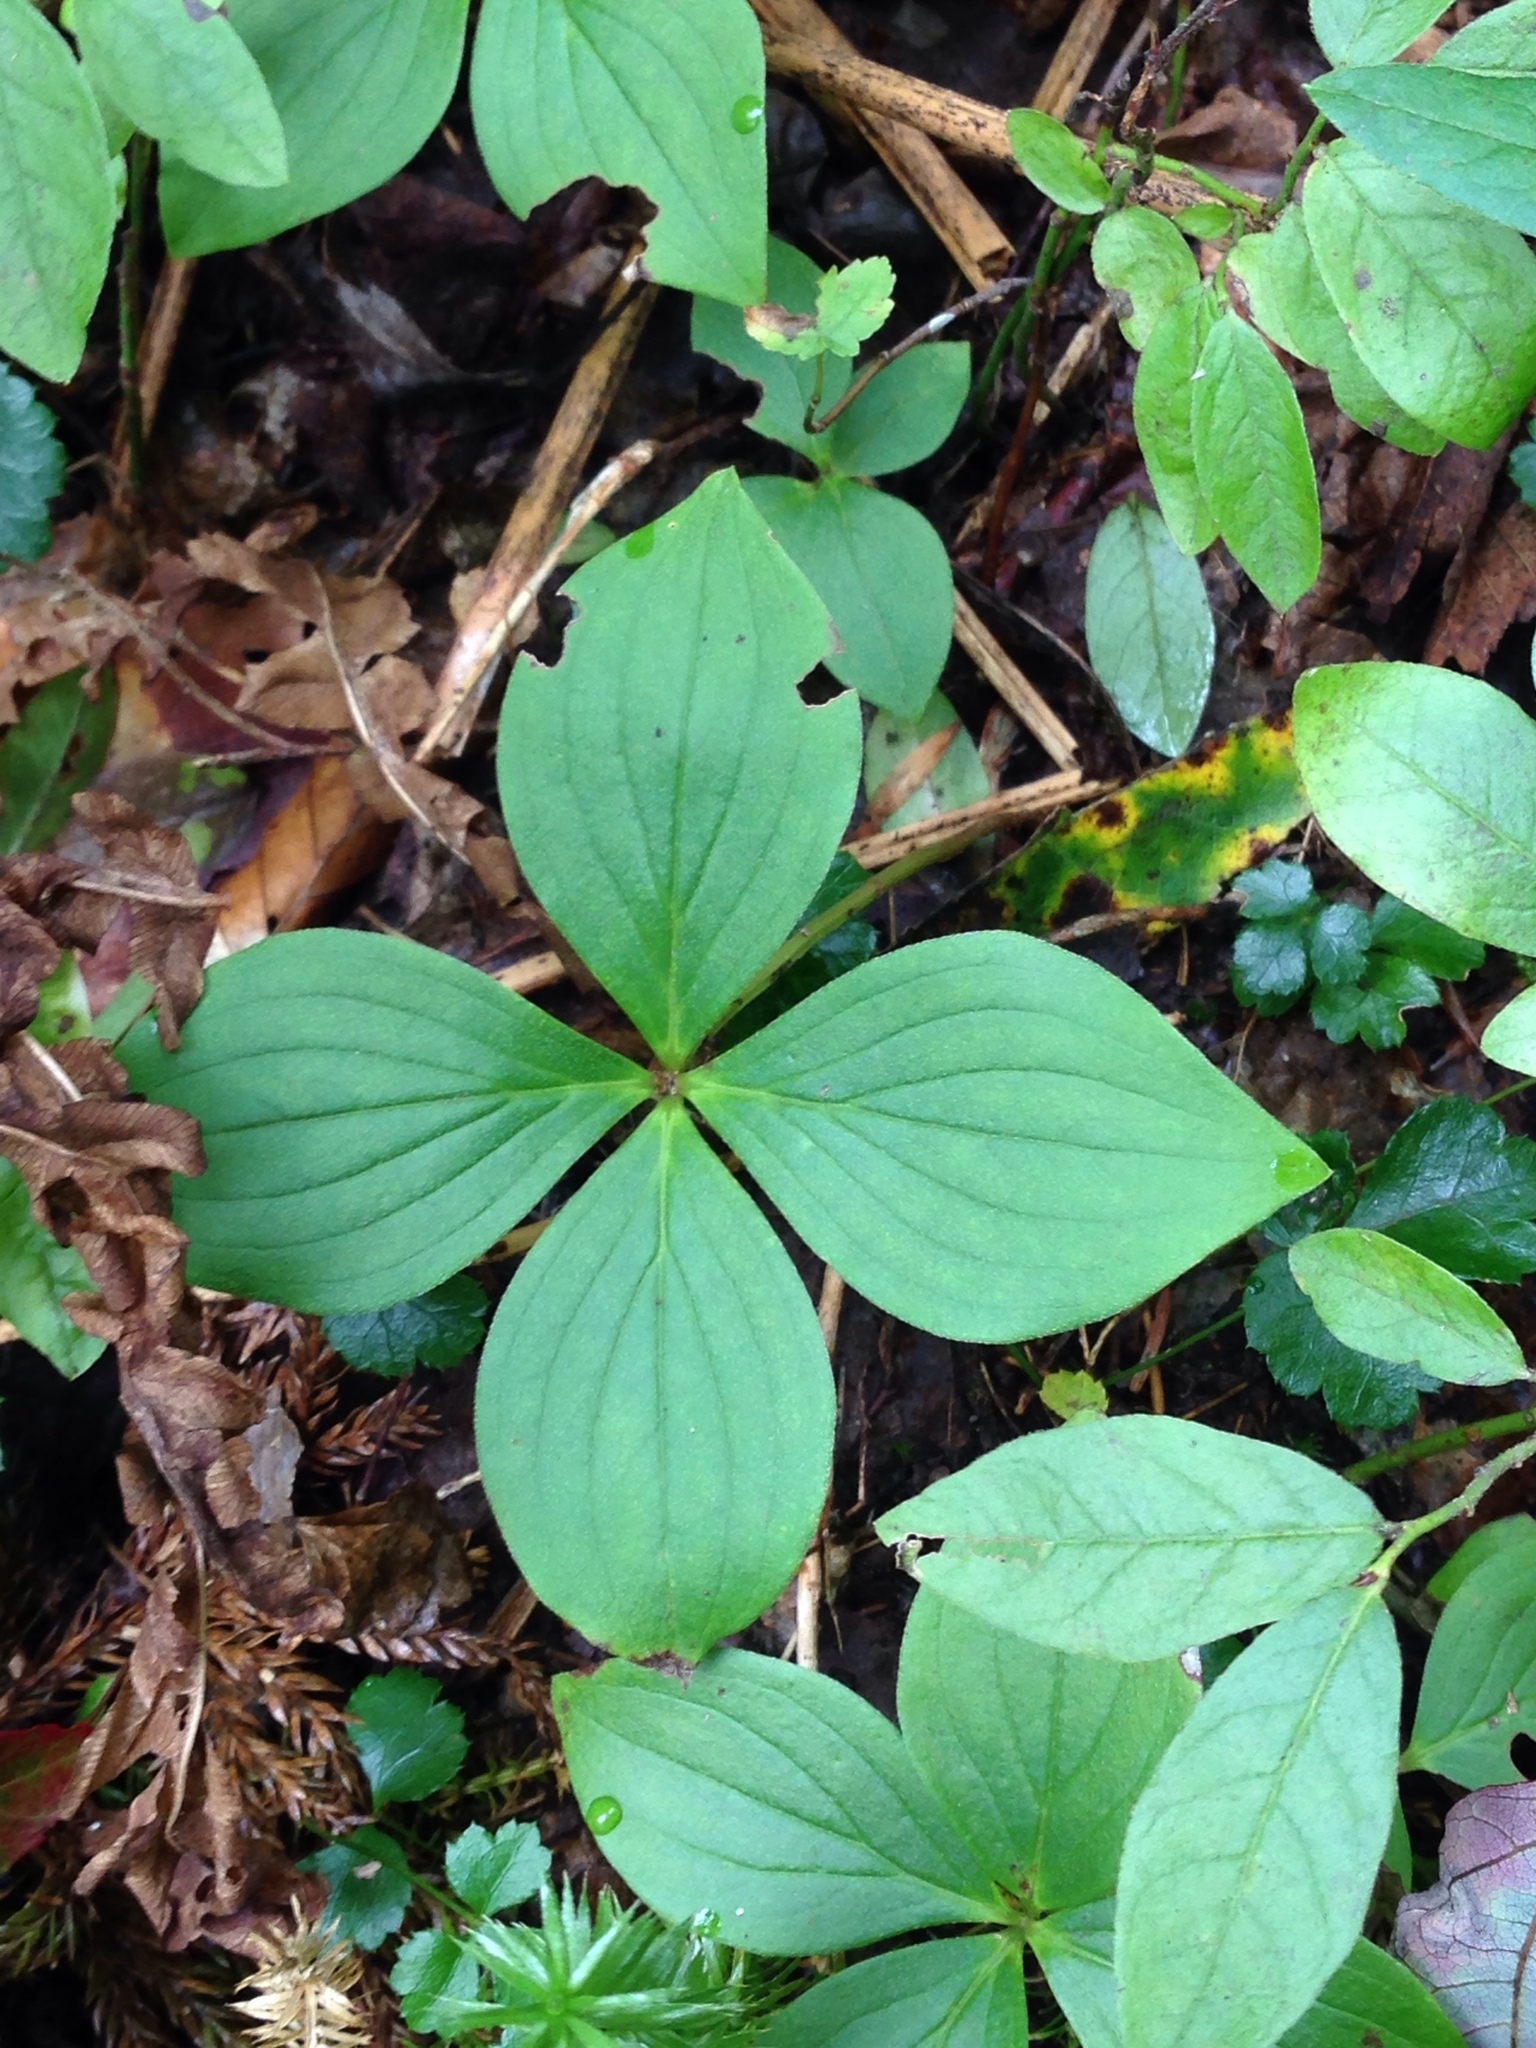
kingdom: Plantae
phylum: Tracheophyta
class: Magnoliopsida
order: Cornales
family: Cornaceae
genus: Cornus
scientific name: Cornus canadensis
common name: Creeping dogwood
